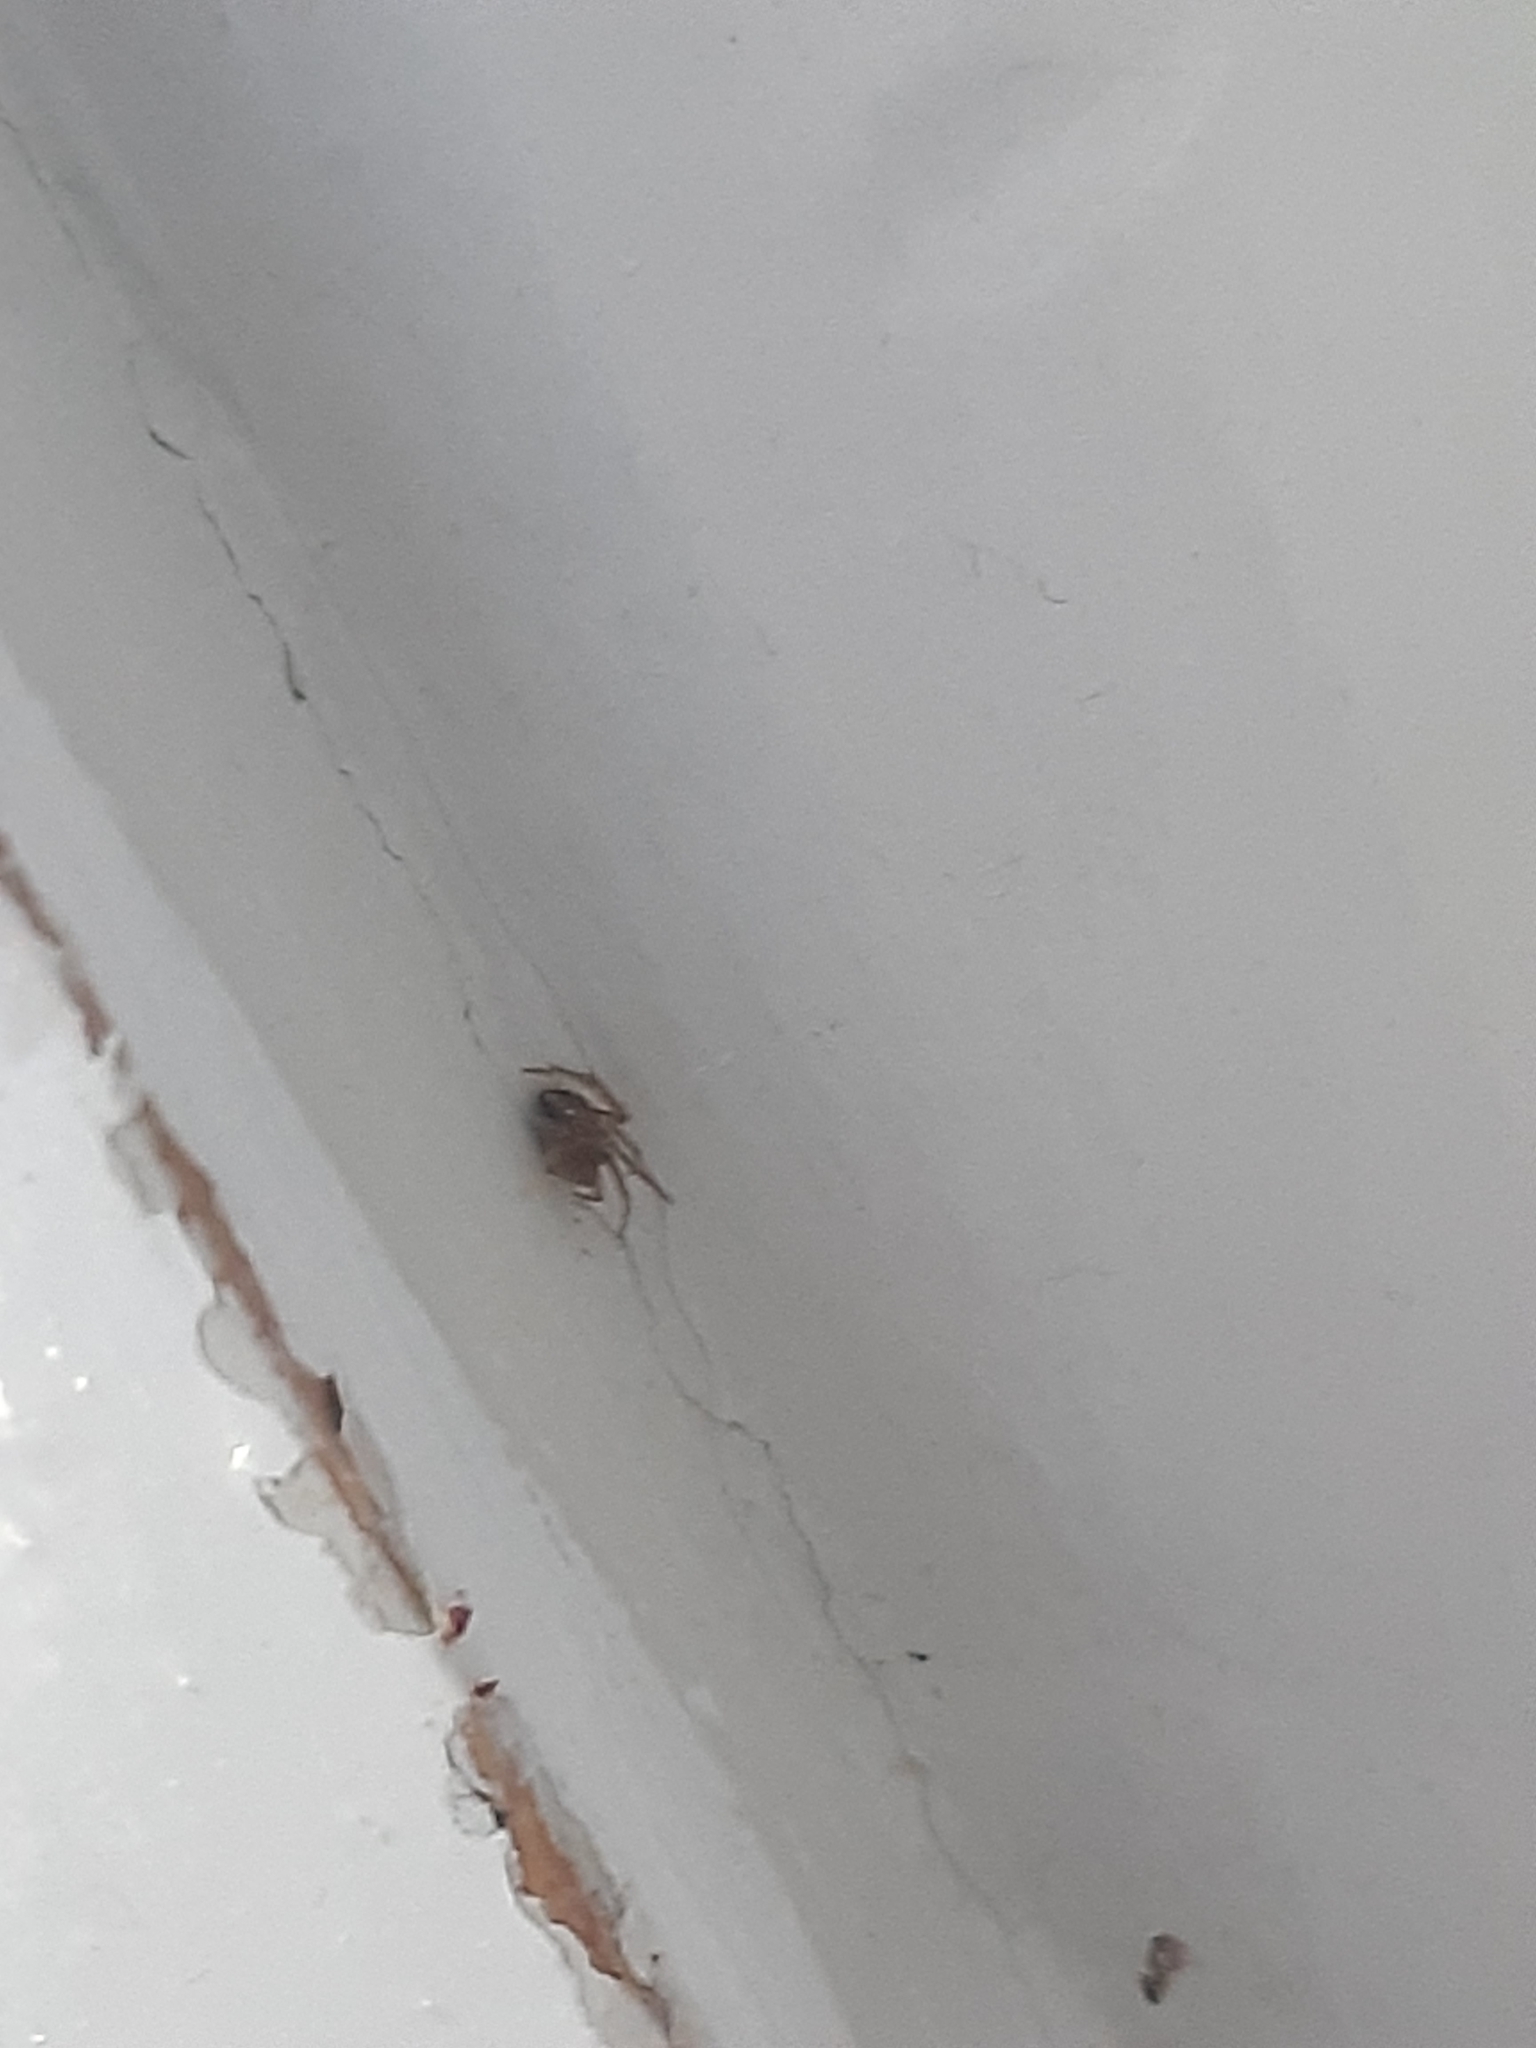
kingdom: Animalia
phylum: Arthropoda
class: Arachnida
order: Araneae
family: Theridiidae
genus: Nesticodes
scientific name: Nesticodes rufipes
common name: Cobweb spiders
